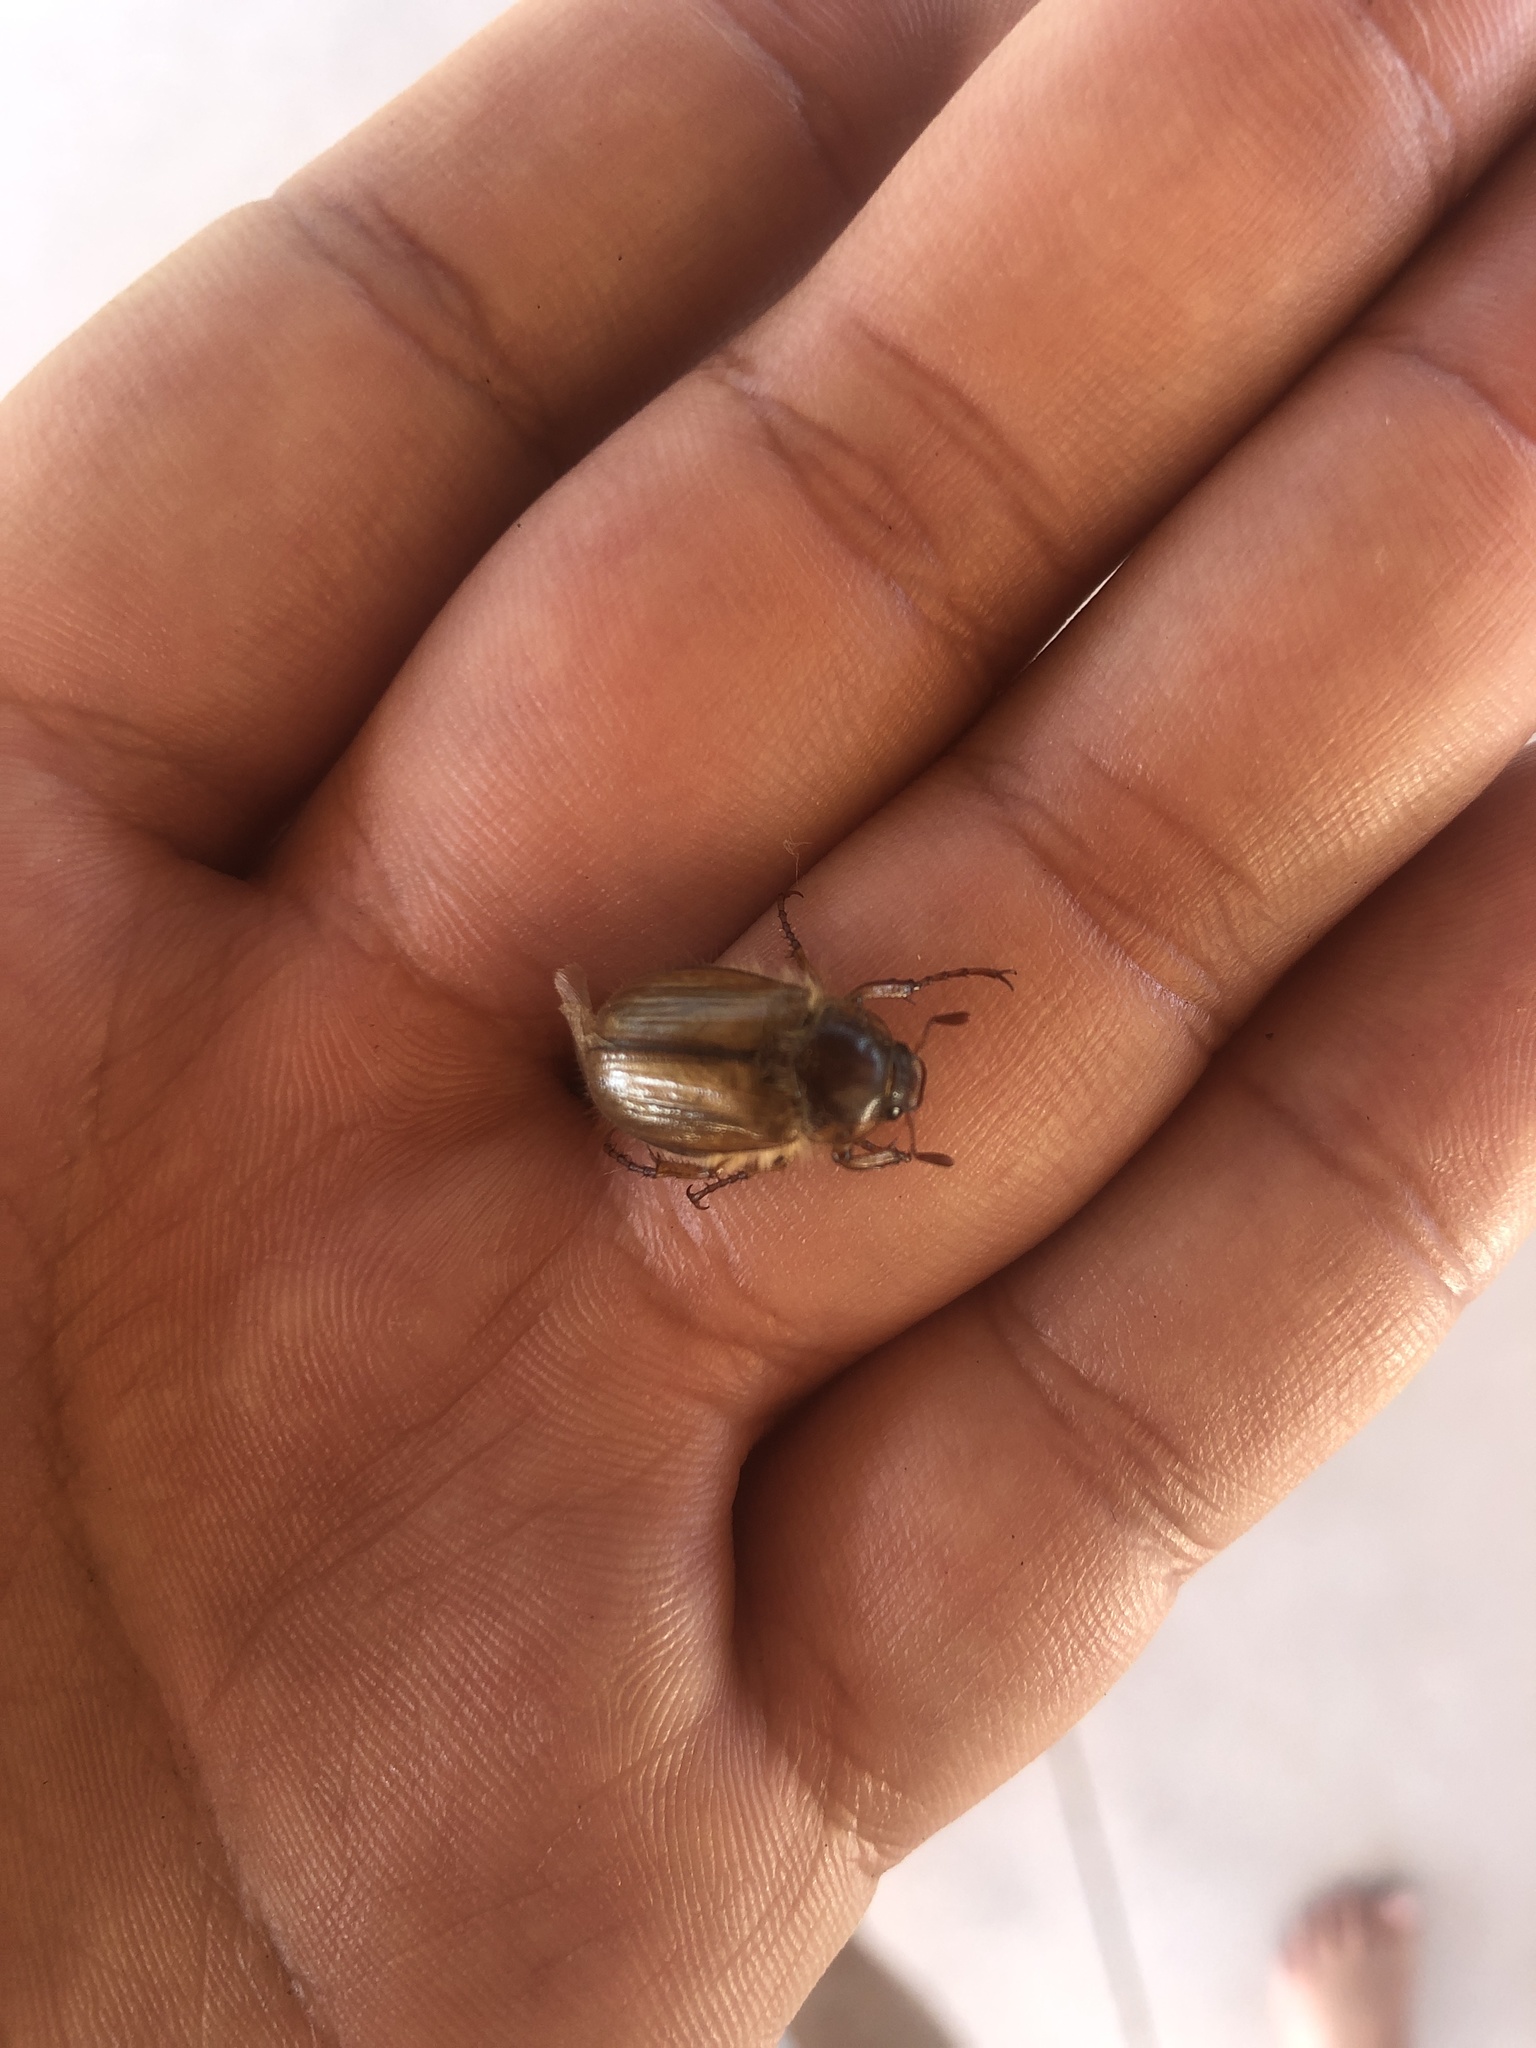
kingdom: Animalia
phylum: Arthropoda
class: Insecta
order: Coleoptera
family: Scarabaeidae
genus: Amphimallon
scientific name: Amphimallon solstitiale
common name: Summer chafer
